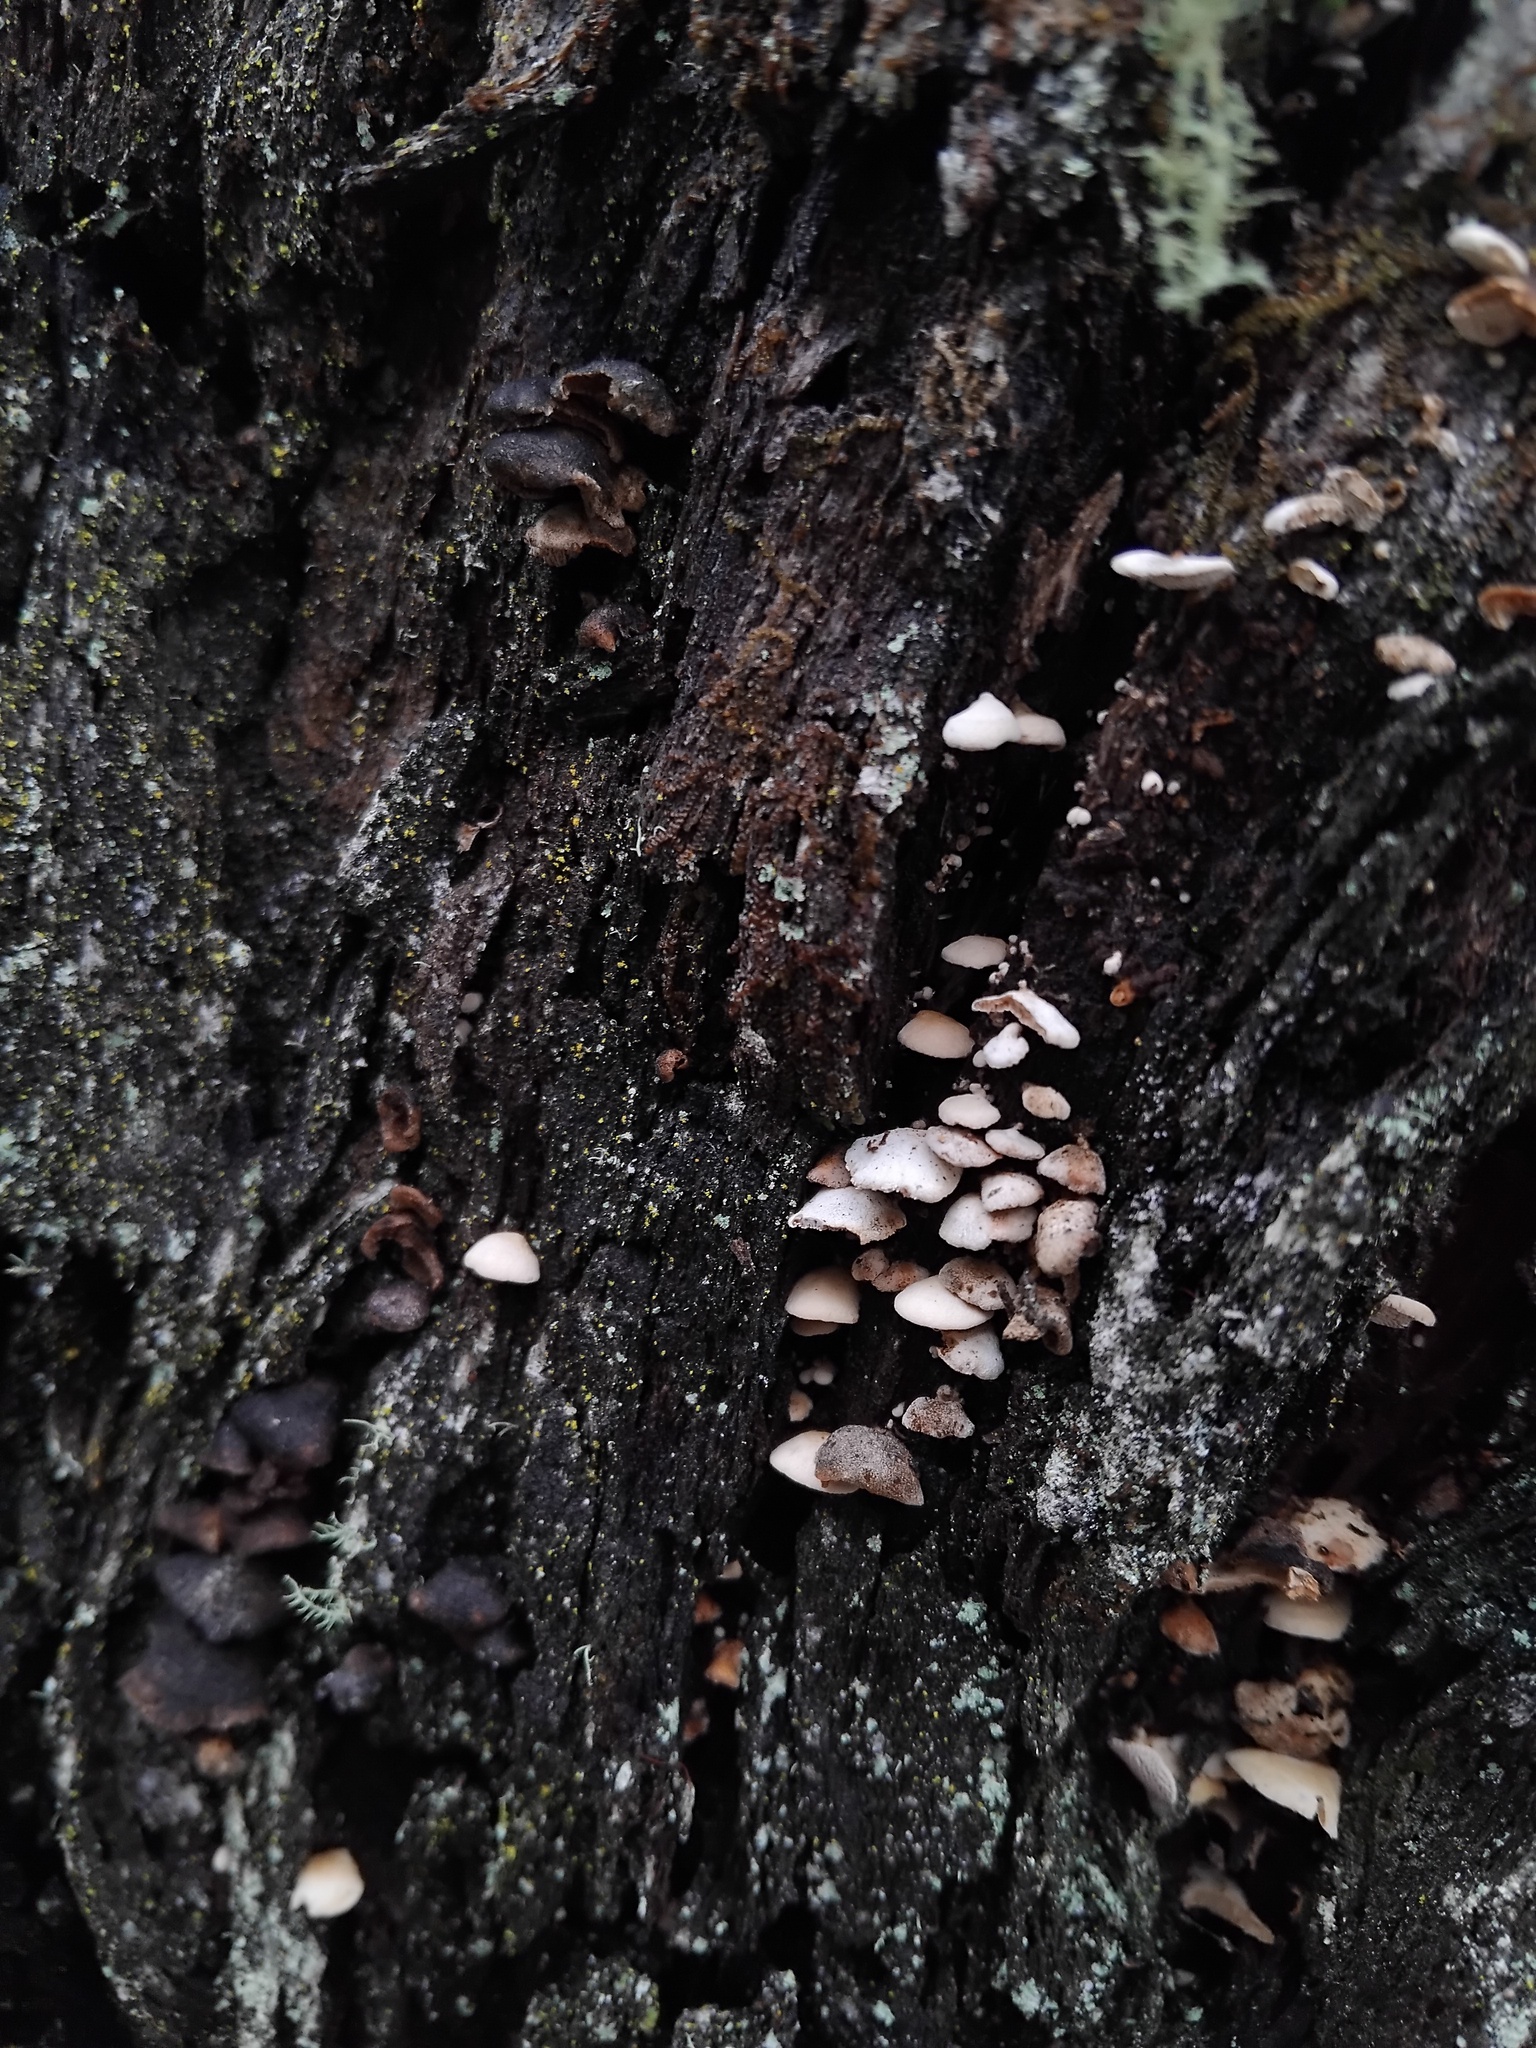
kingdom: Fungi
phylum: Basidiomycota
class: Agaricomycetes
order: Agaricales
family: Mycenaceae
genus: Panellus
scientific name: Panellus luxfilamentus
